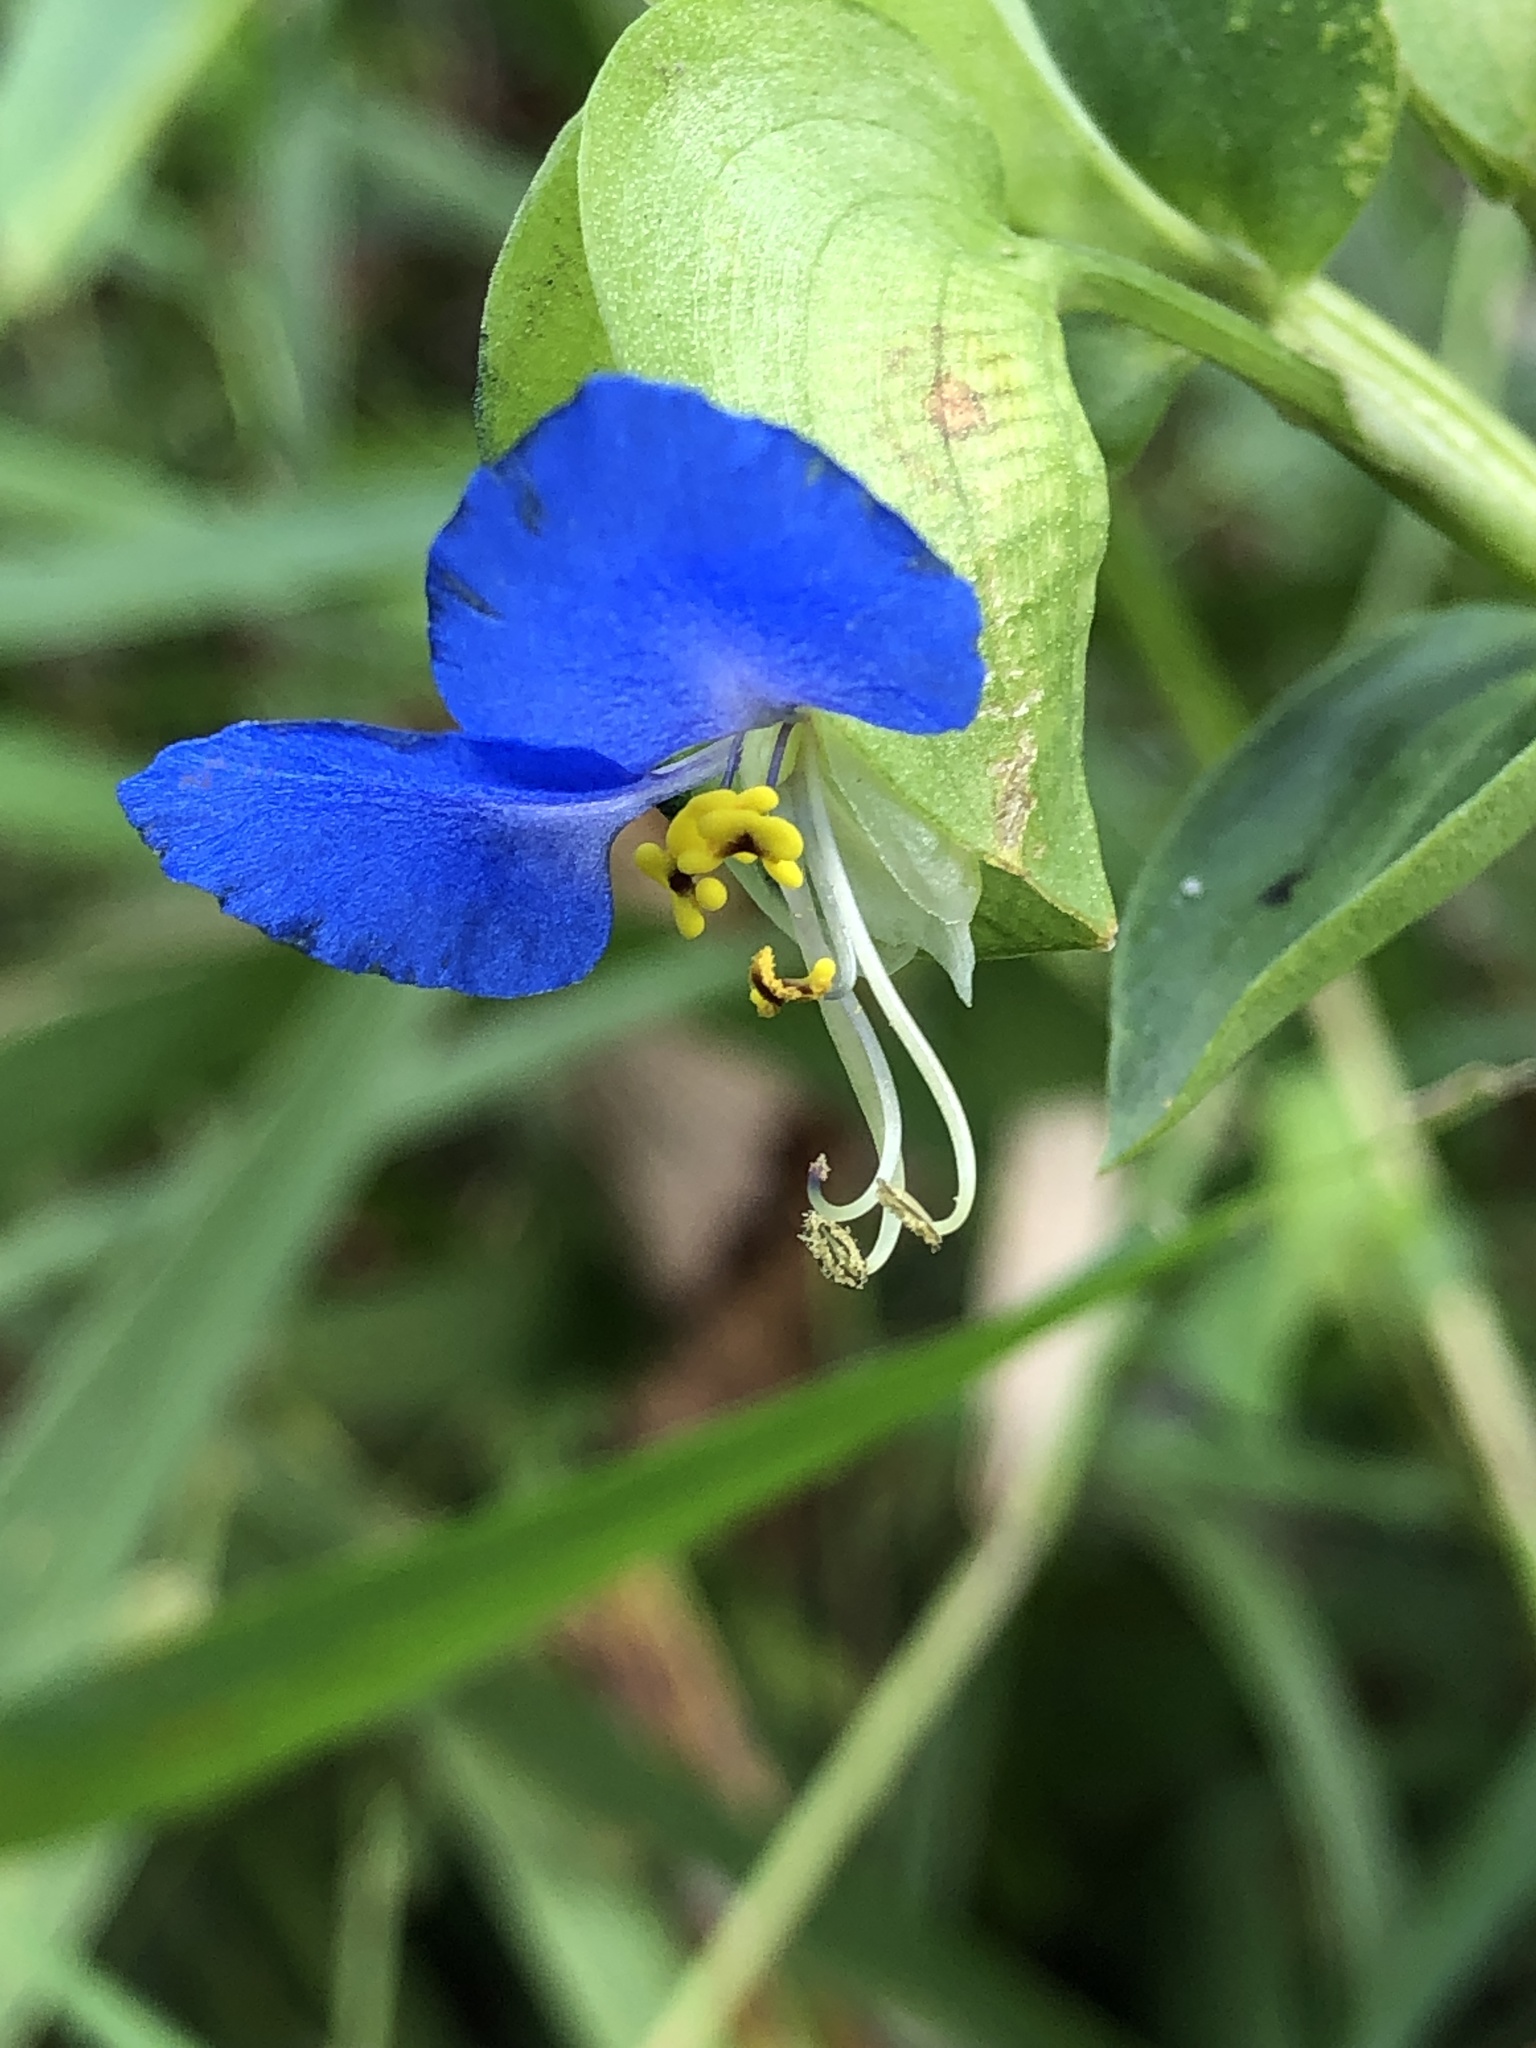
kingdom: Plantae
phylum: Tracheophyta
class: Liliopsida
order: Commelinales
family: Commelinaceae
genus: Commelina
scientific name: Commelina communis
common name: Asiatic dayflower
